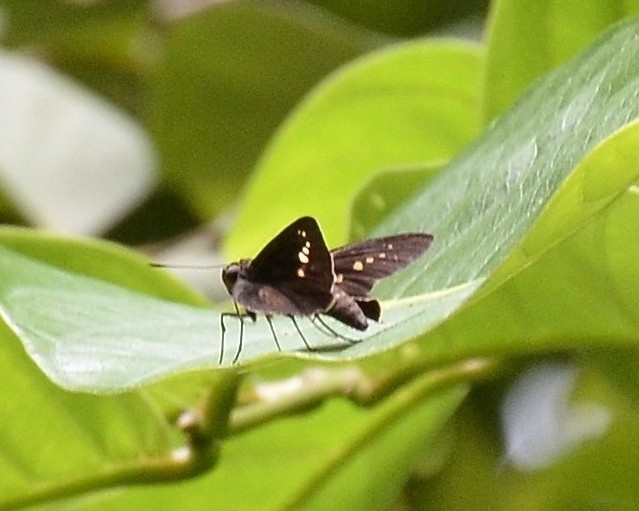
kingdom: Animalia
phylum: Arthropoda
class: Insecta
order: Lepidoptera
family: Hesperiidae
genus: Caltoris
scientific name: Caltoris kumara
